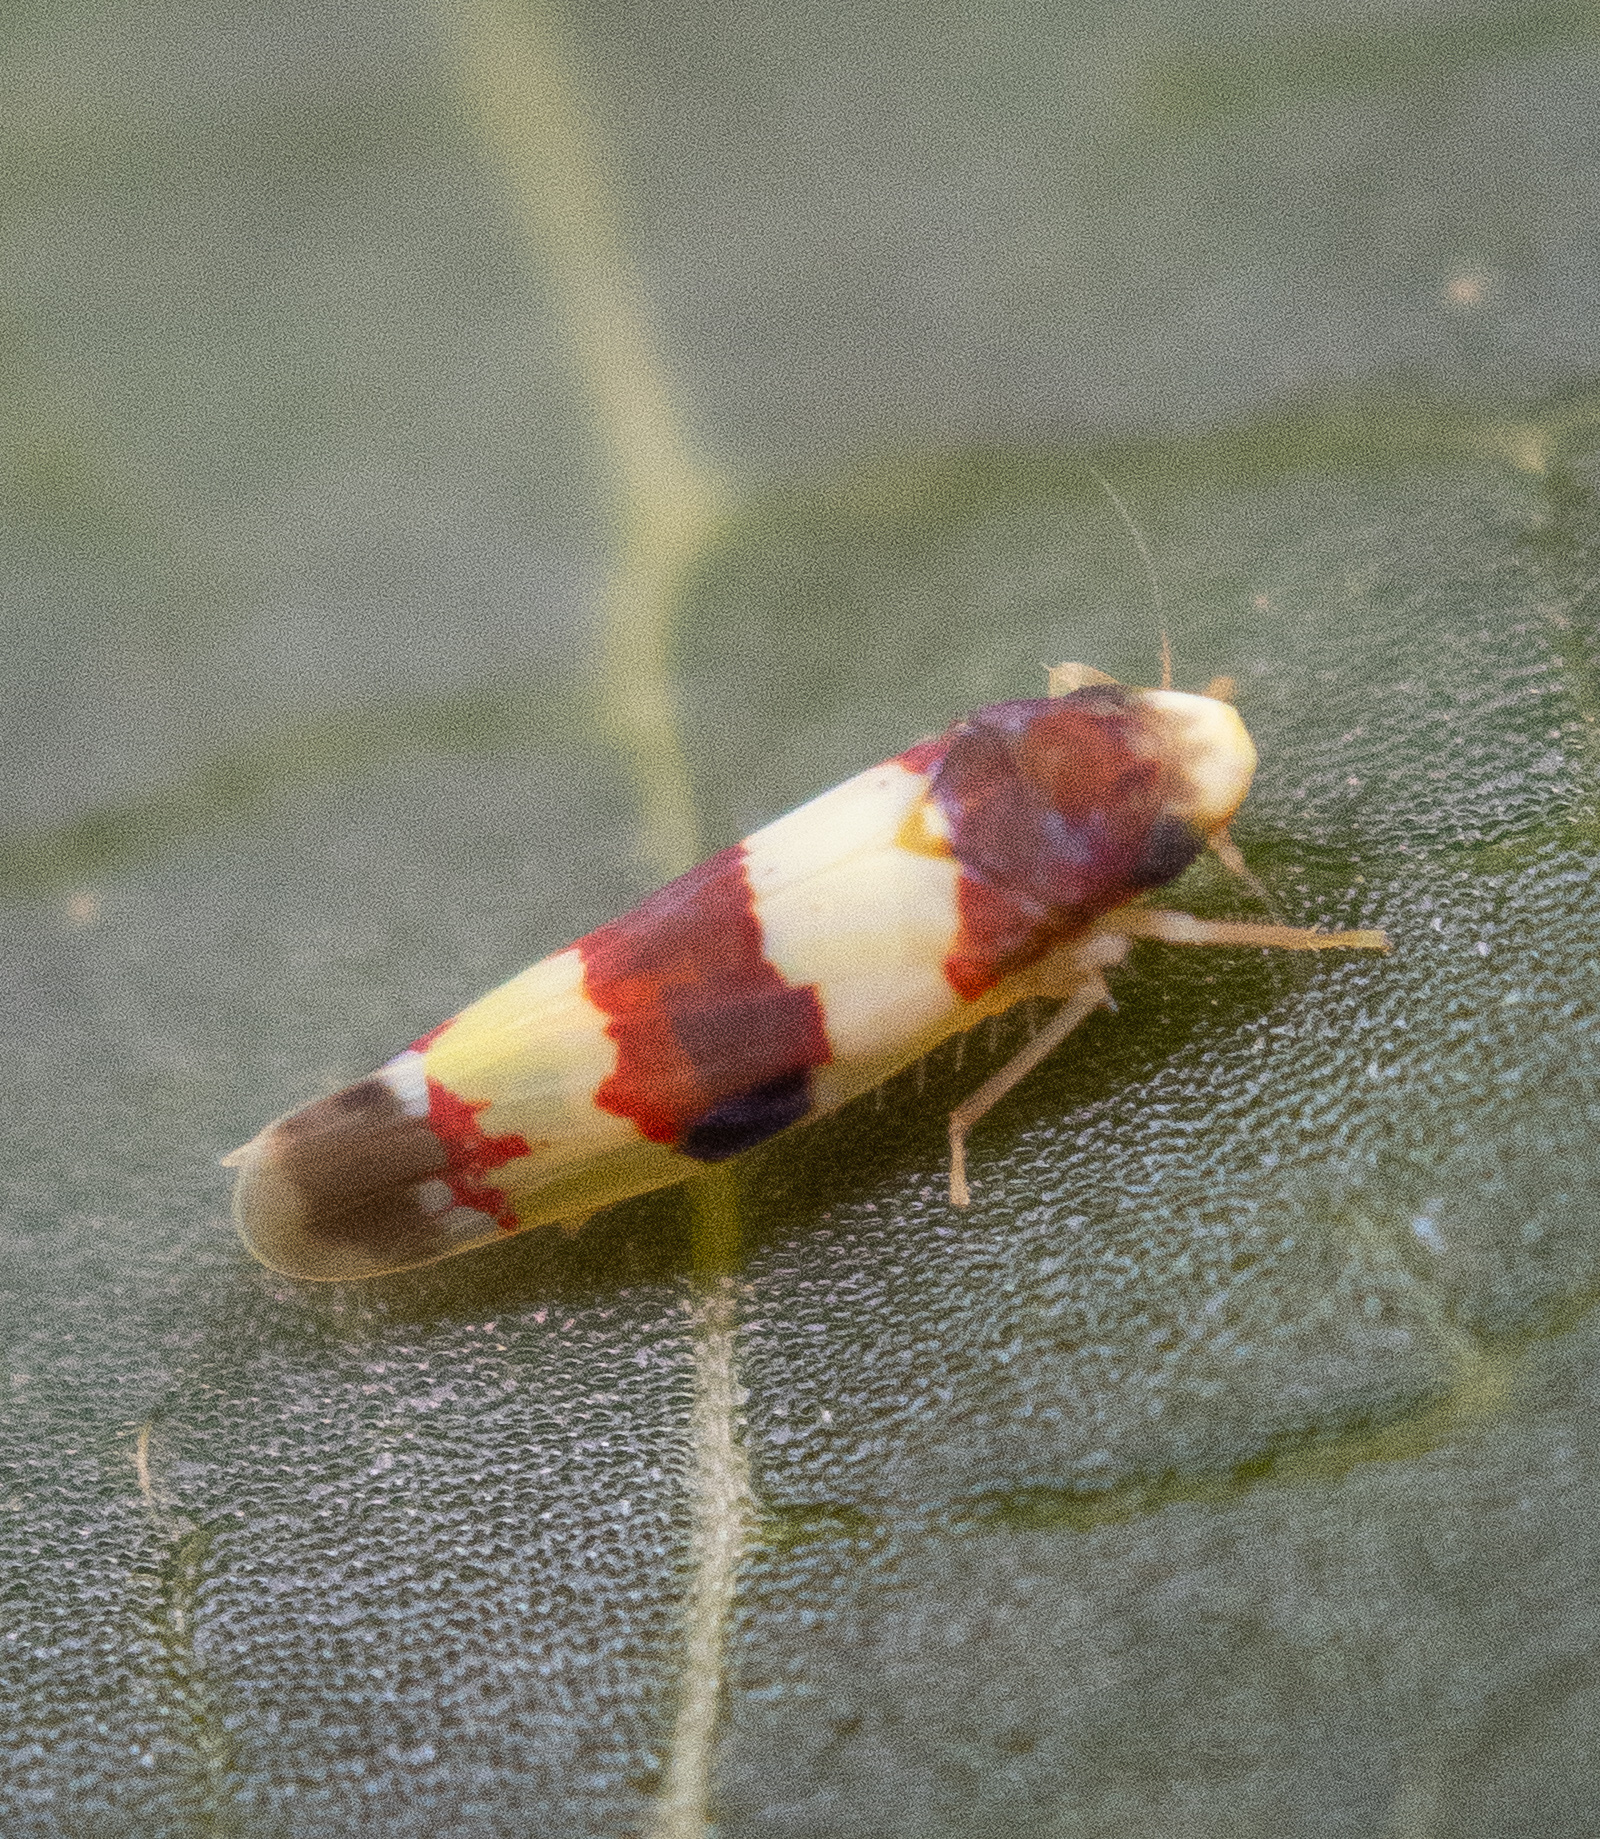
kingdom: Animalia
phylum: Arthropoda
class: Insecta
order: Hemiptera
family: Cicadellidae
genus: Erythroneura
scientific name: Erythroneura bistrata
